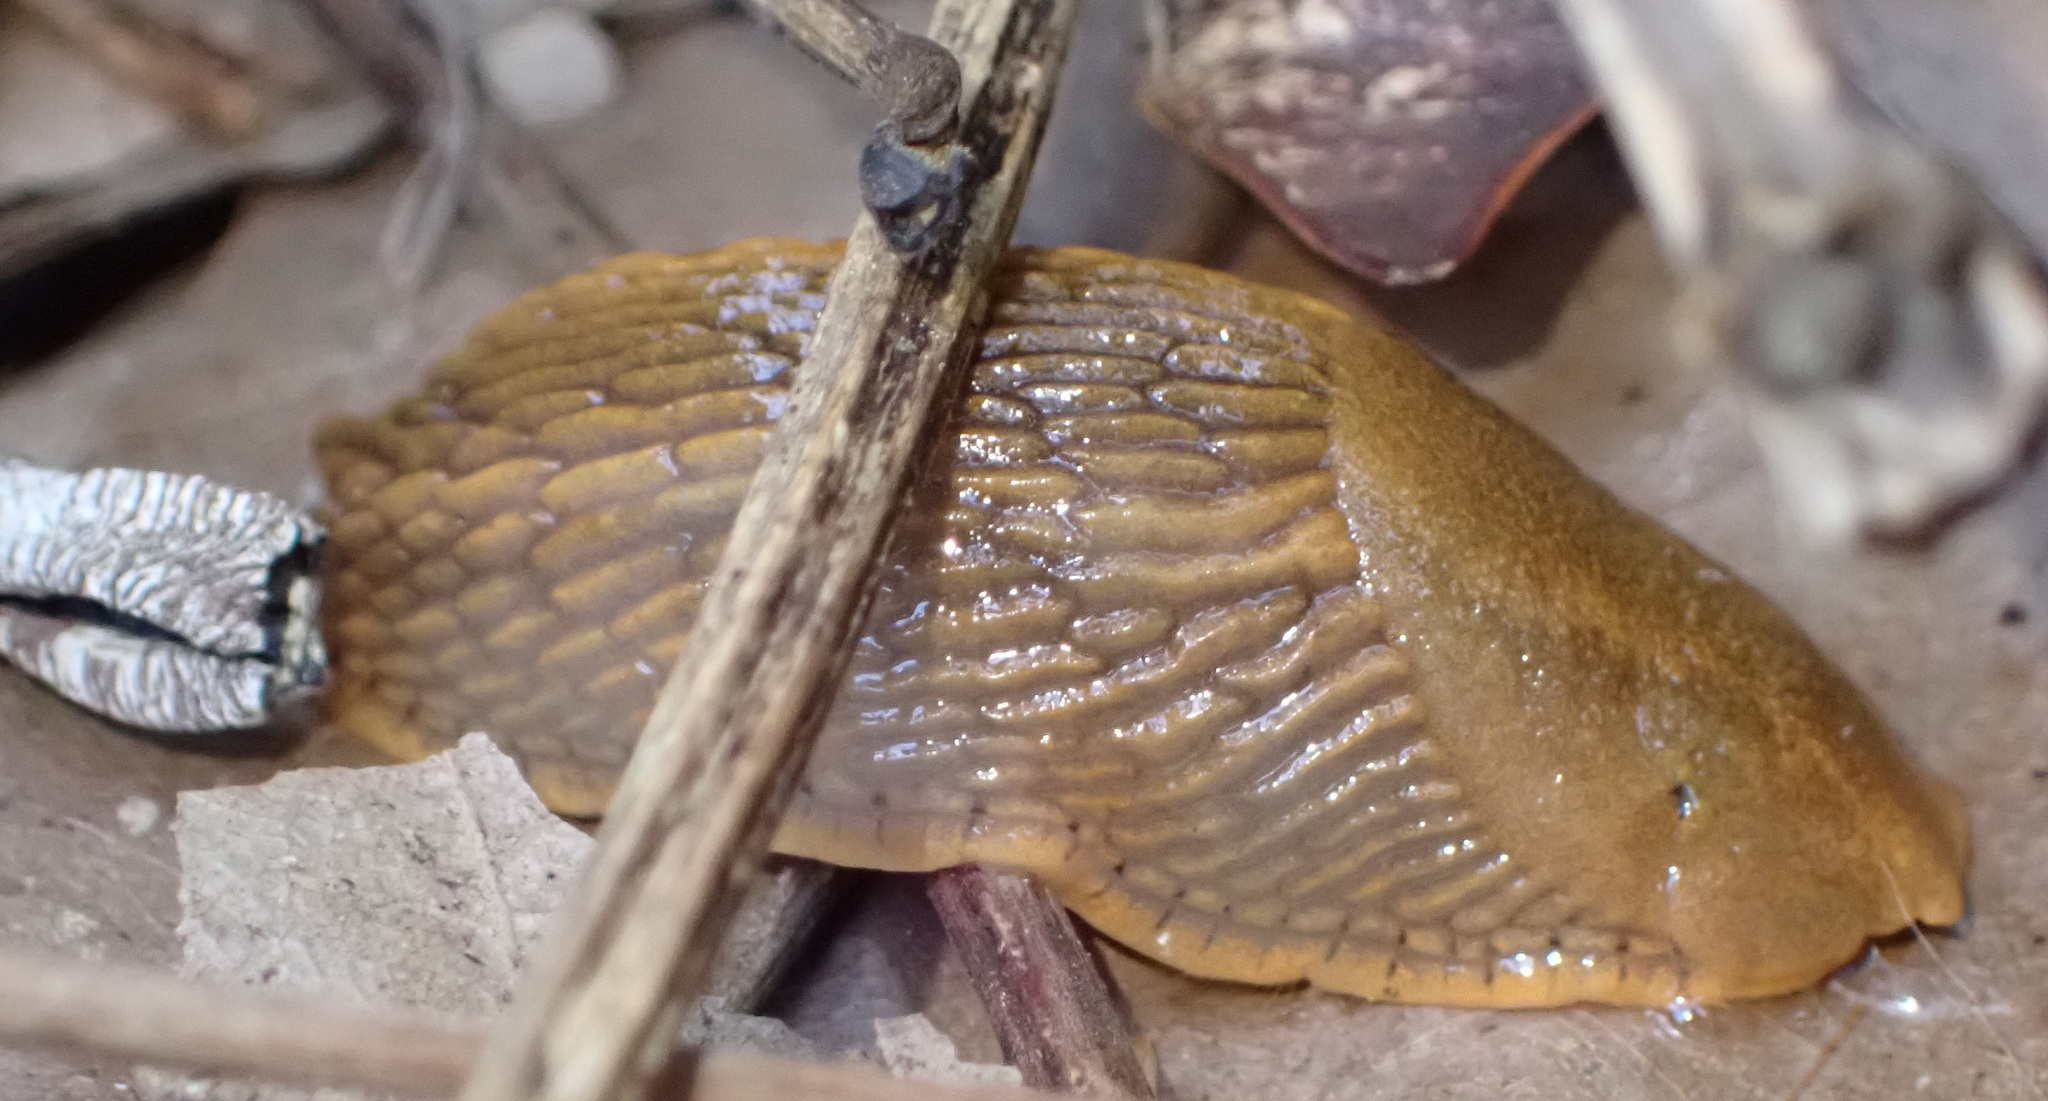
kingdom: Animalia
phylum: Mollusca
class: Gastropoda
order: Stylommatophora
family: Arionidae
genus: Arion
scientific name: Arion
